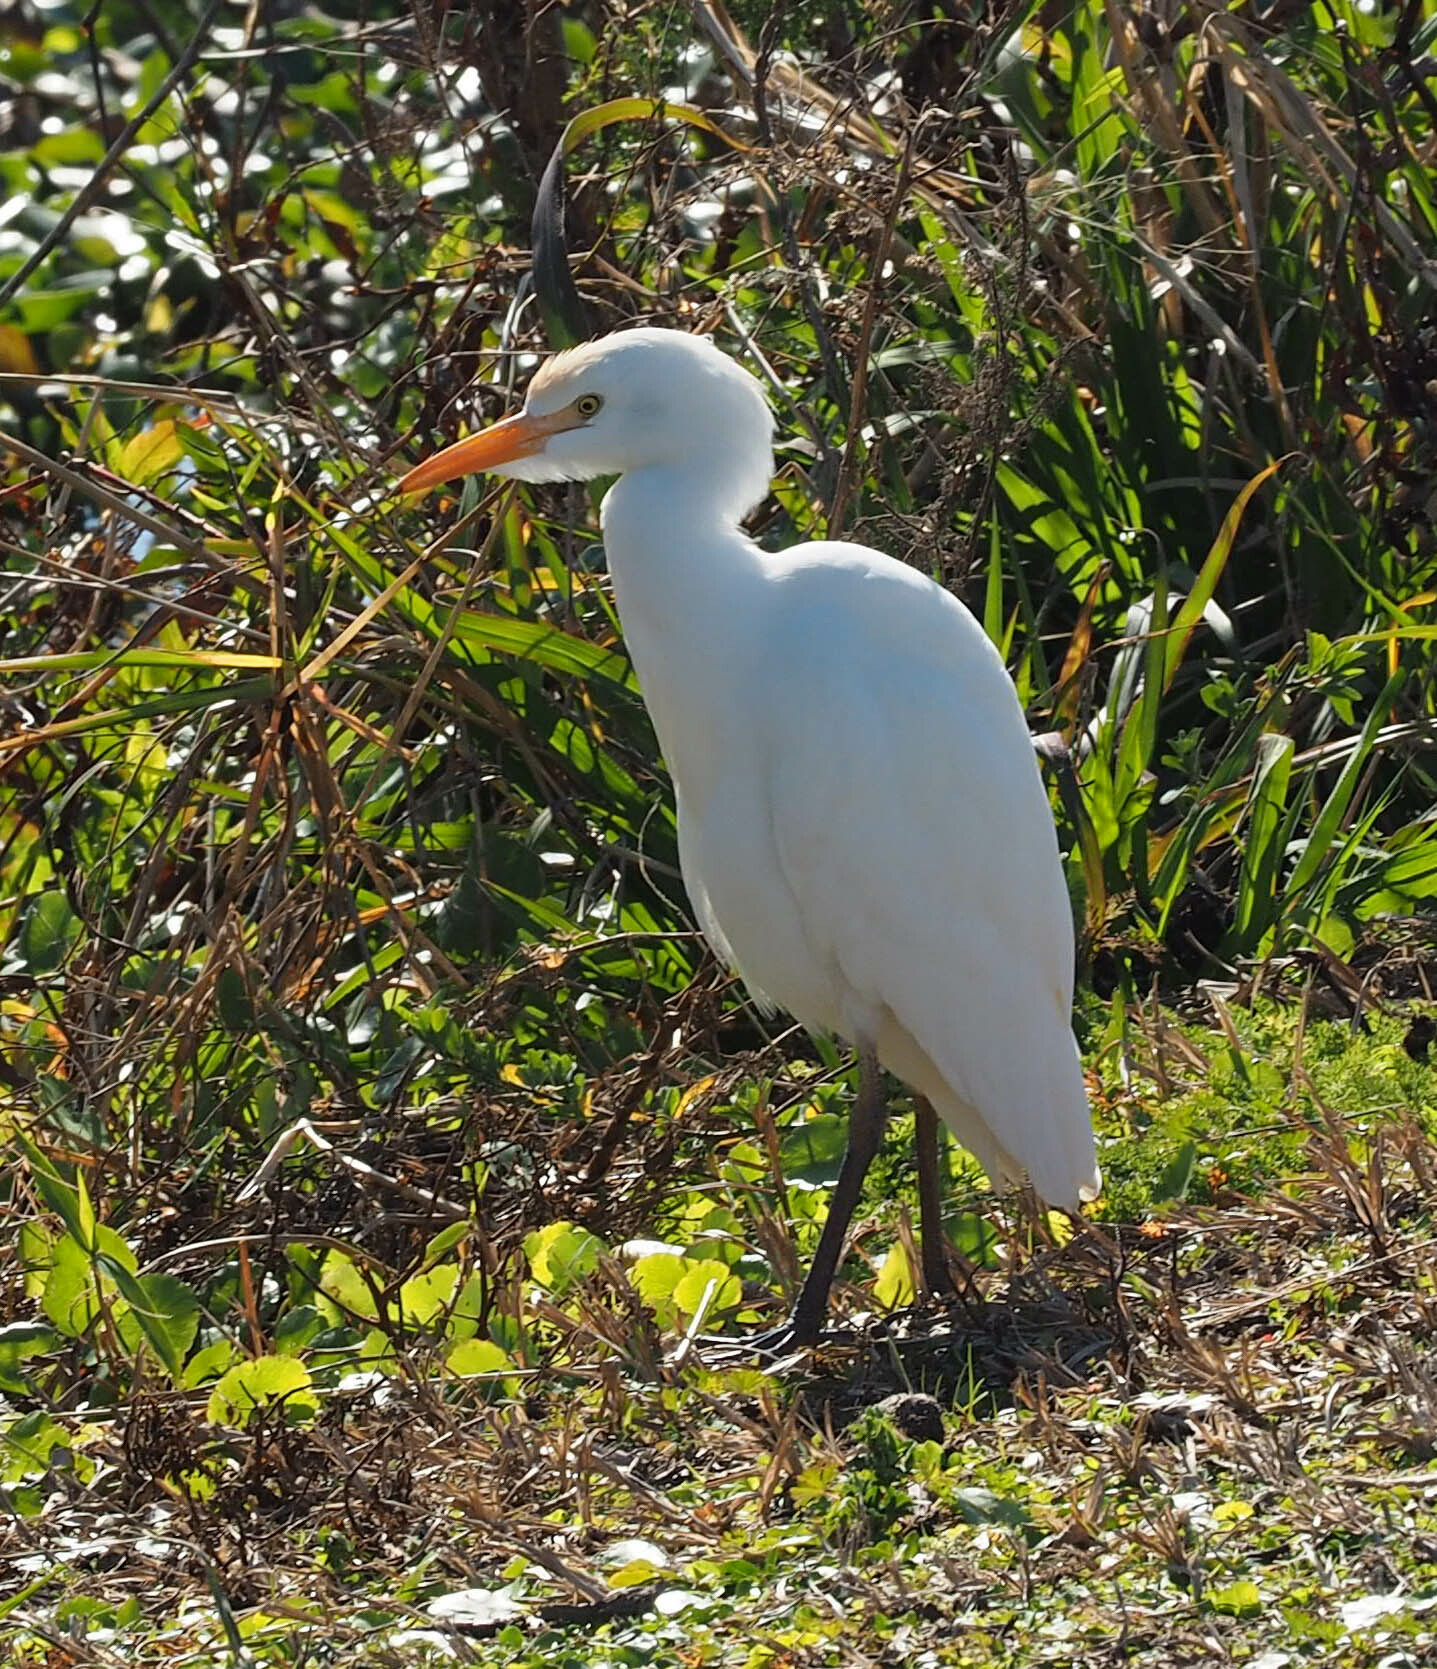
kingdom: Animalia
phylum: Chordata
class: Aves
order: Pelecaniformes
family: Ardeidae
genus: Bubulcus
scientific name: Bubulcus ibis
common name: Cattle egret
